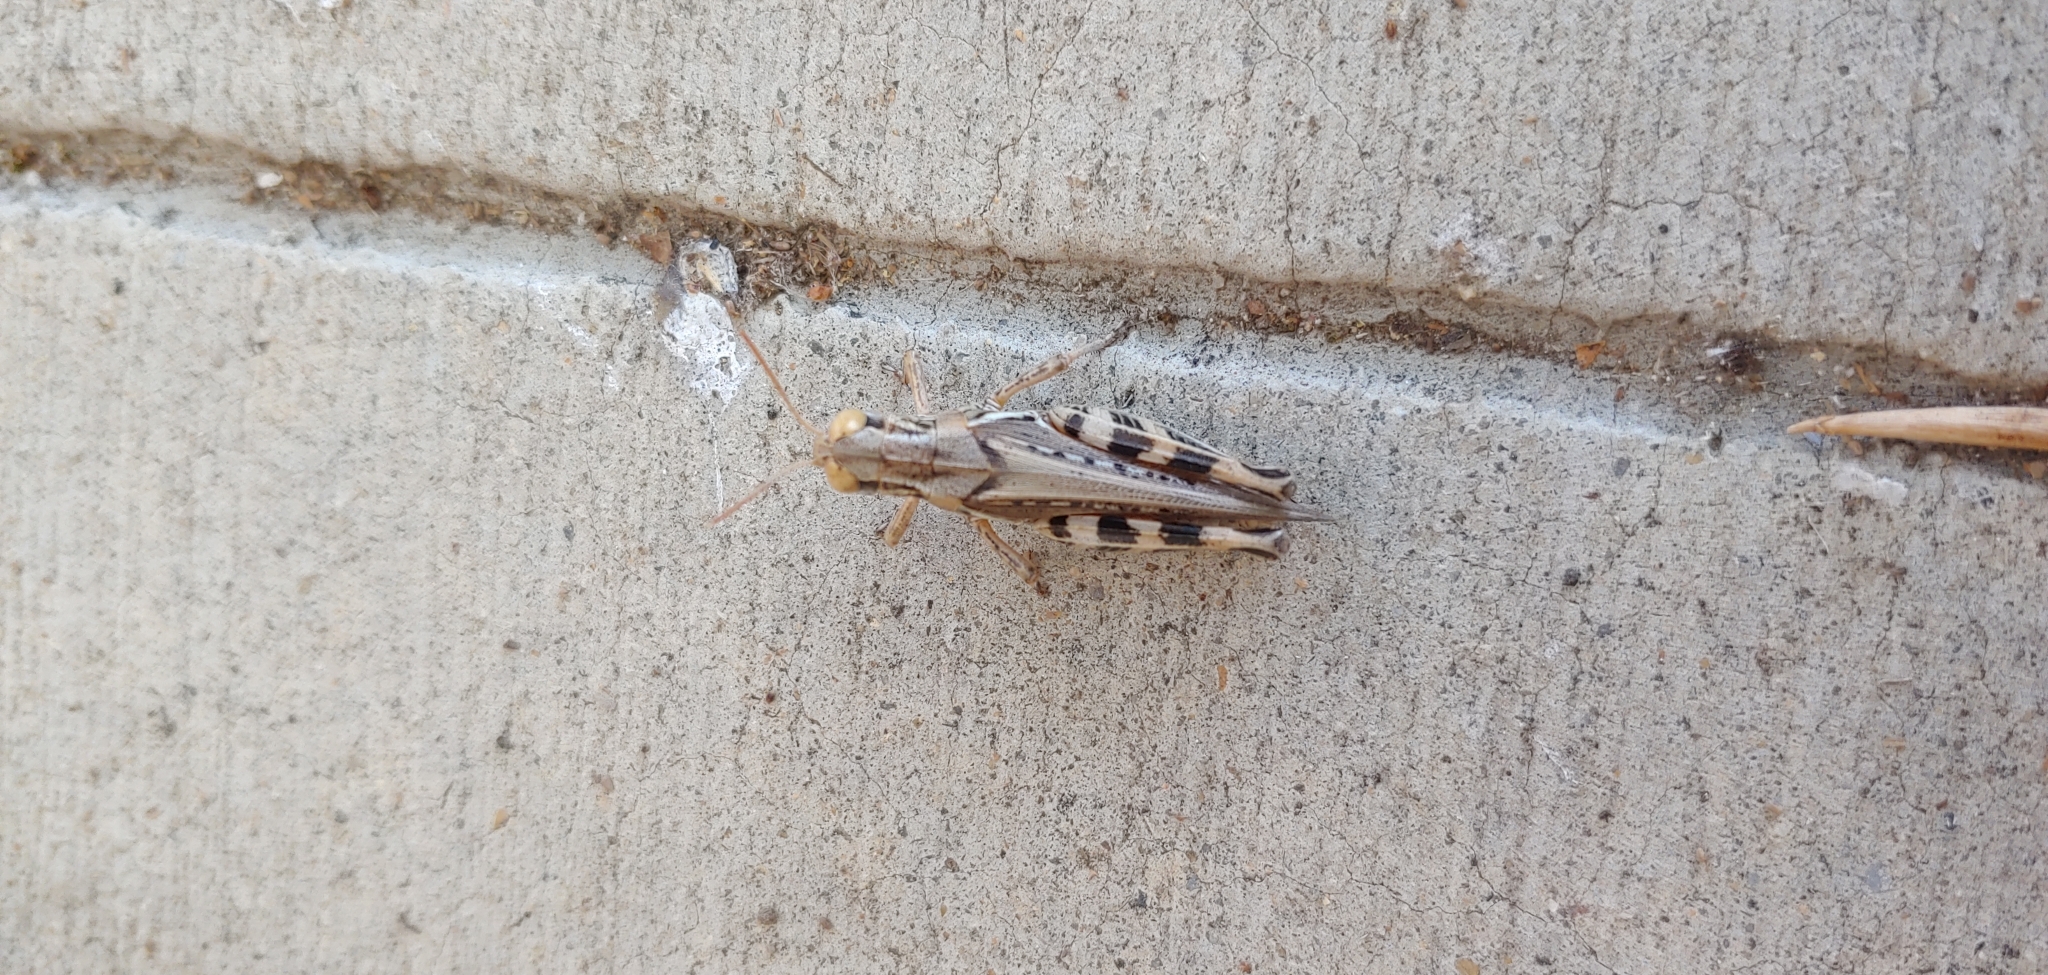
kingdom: Animalia
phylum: Arthropoda
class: Insecta
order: Orthoptera
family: Acrididae
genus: Melanoplus
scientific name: Melanoplus devastator
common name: Devastating grasshopper
